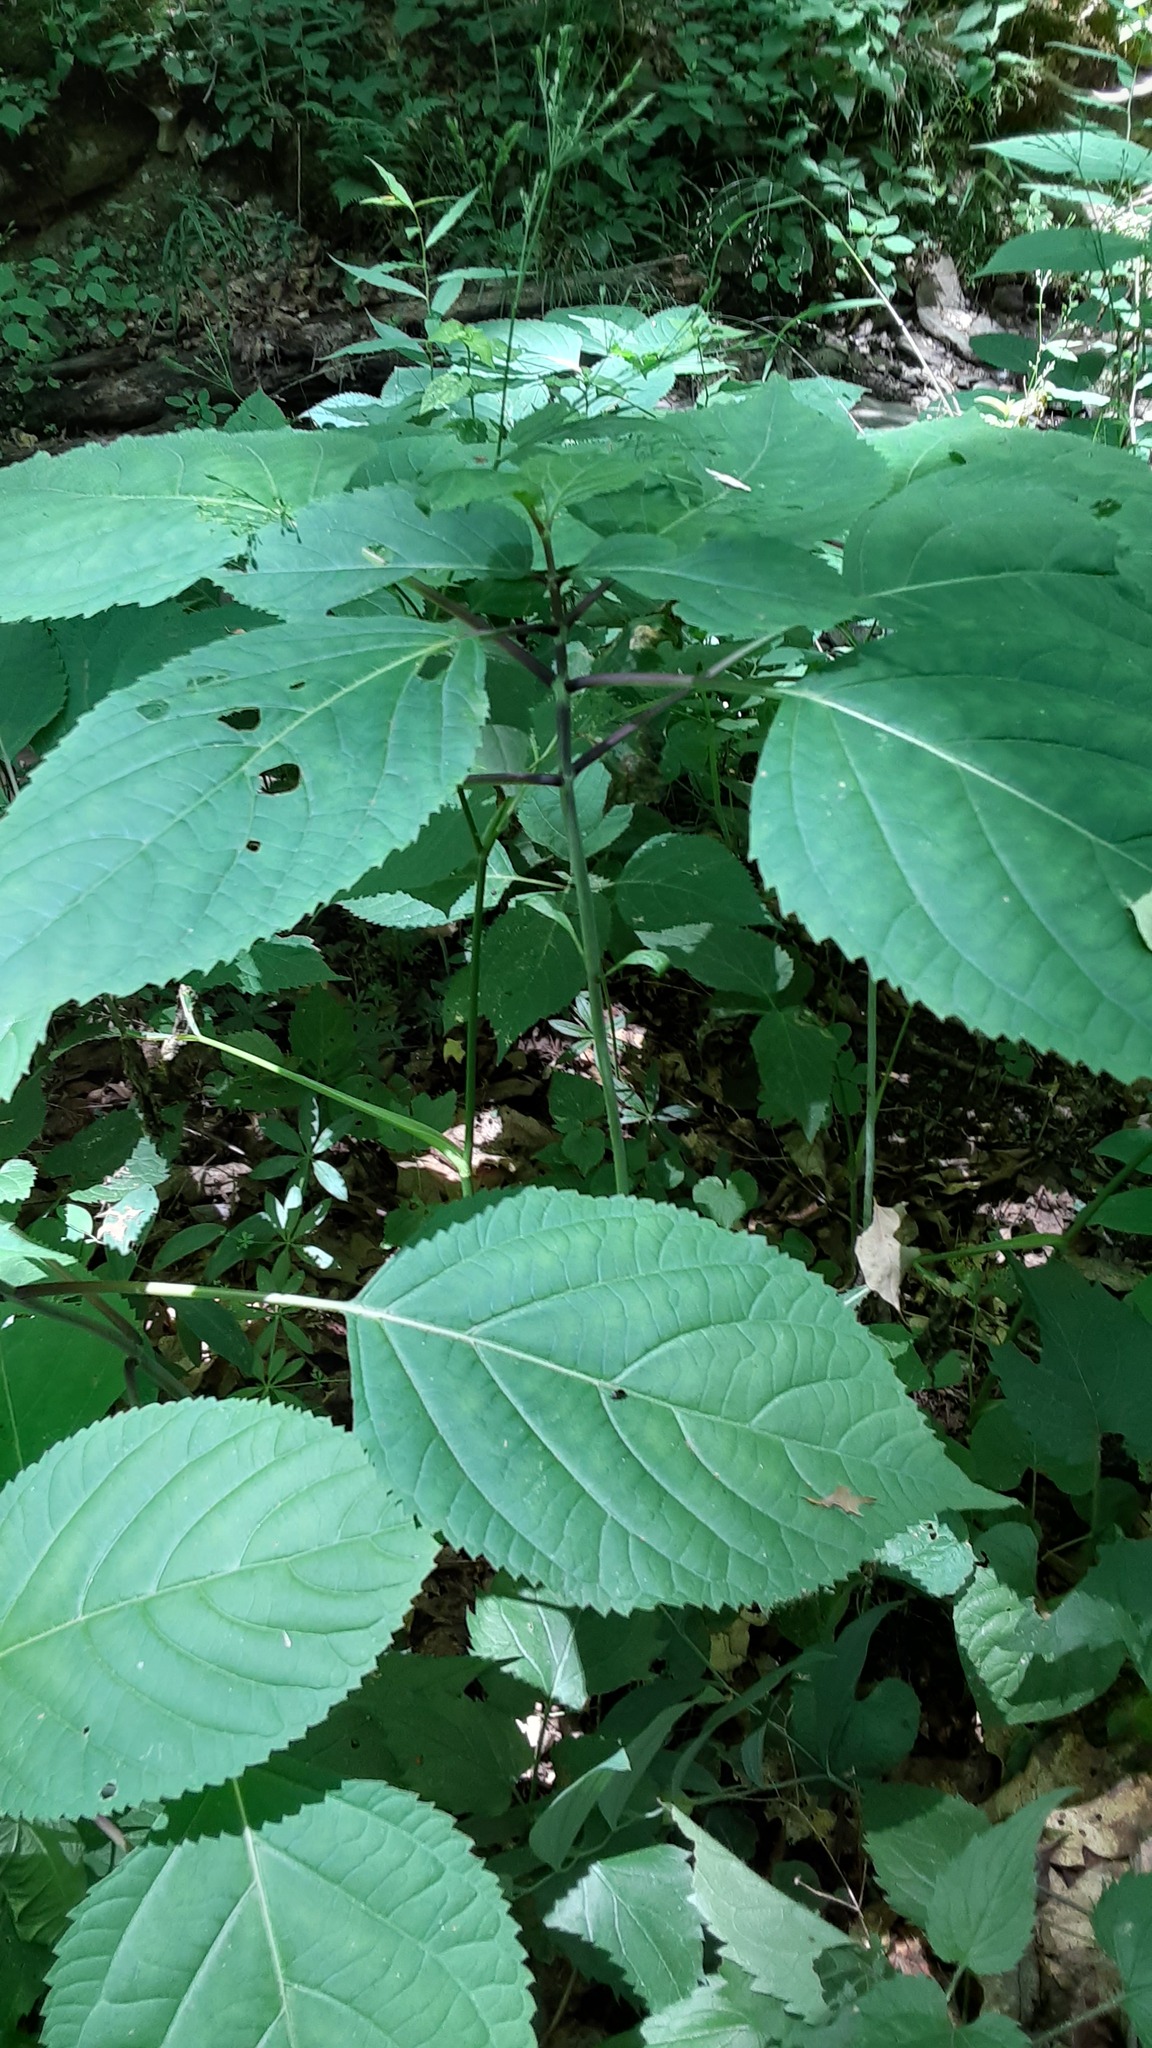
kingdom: Plantae
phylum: Tracheophyta
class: Magnoliopsida
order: Lamiales
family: Lamiaceae
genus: Collinsonia
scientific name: Collinsonia canadensis
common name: Northern horsebalm
